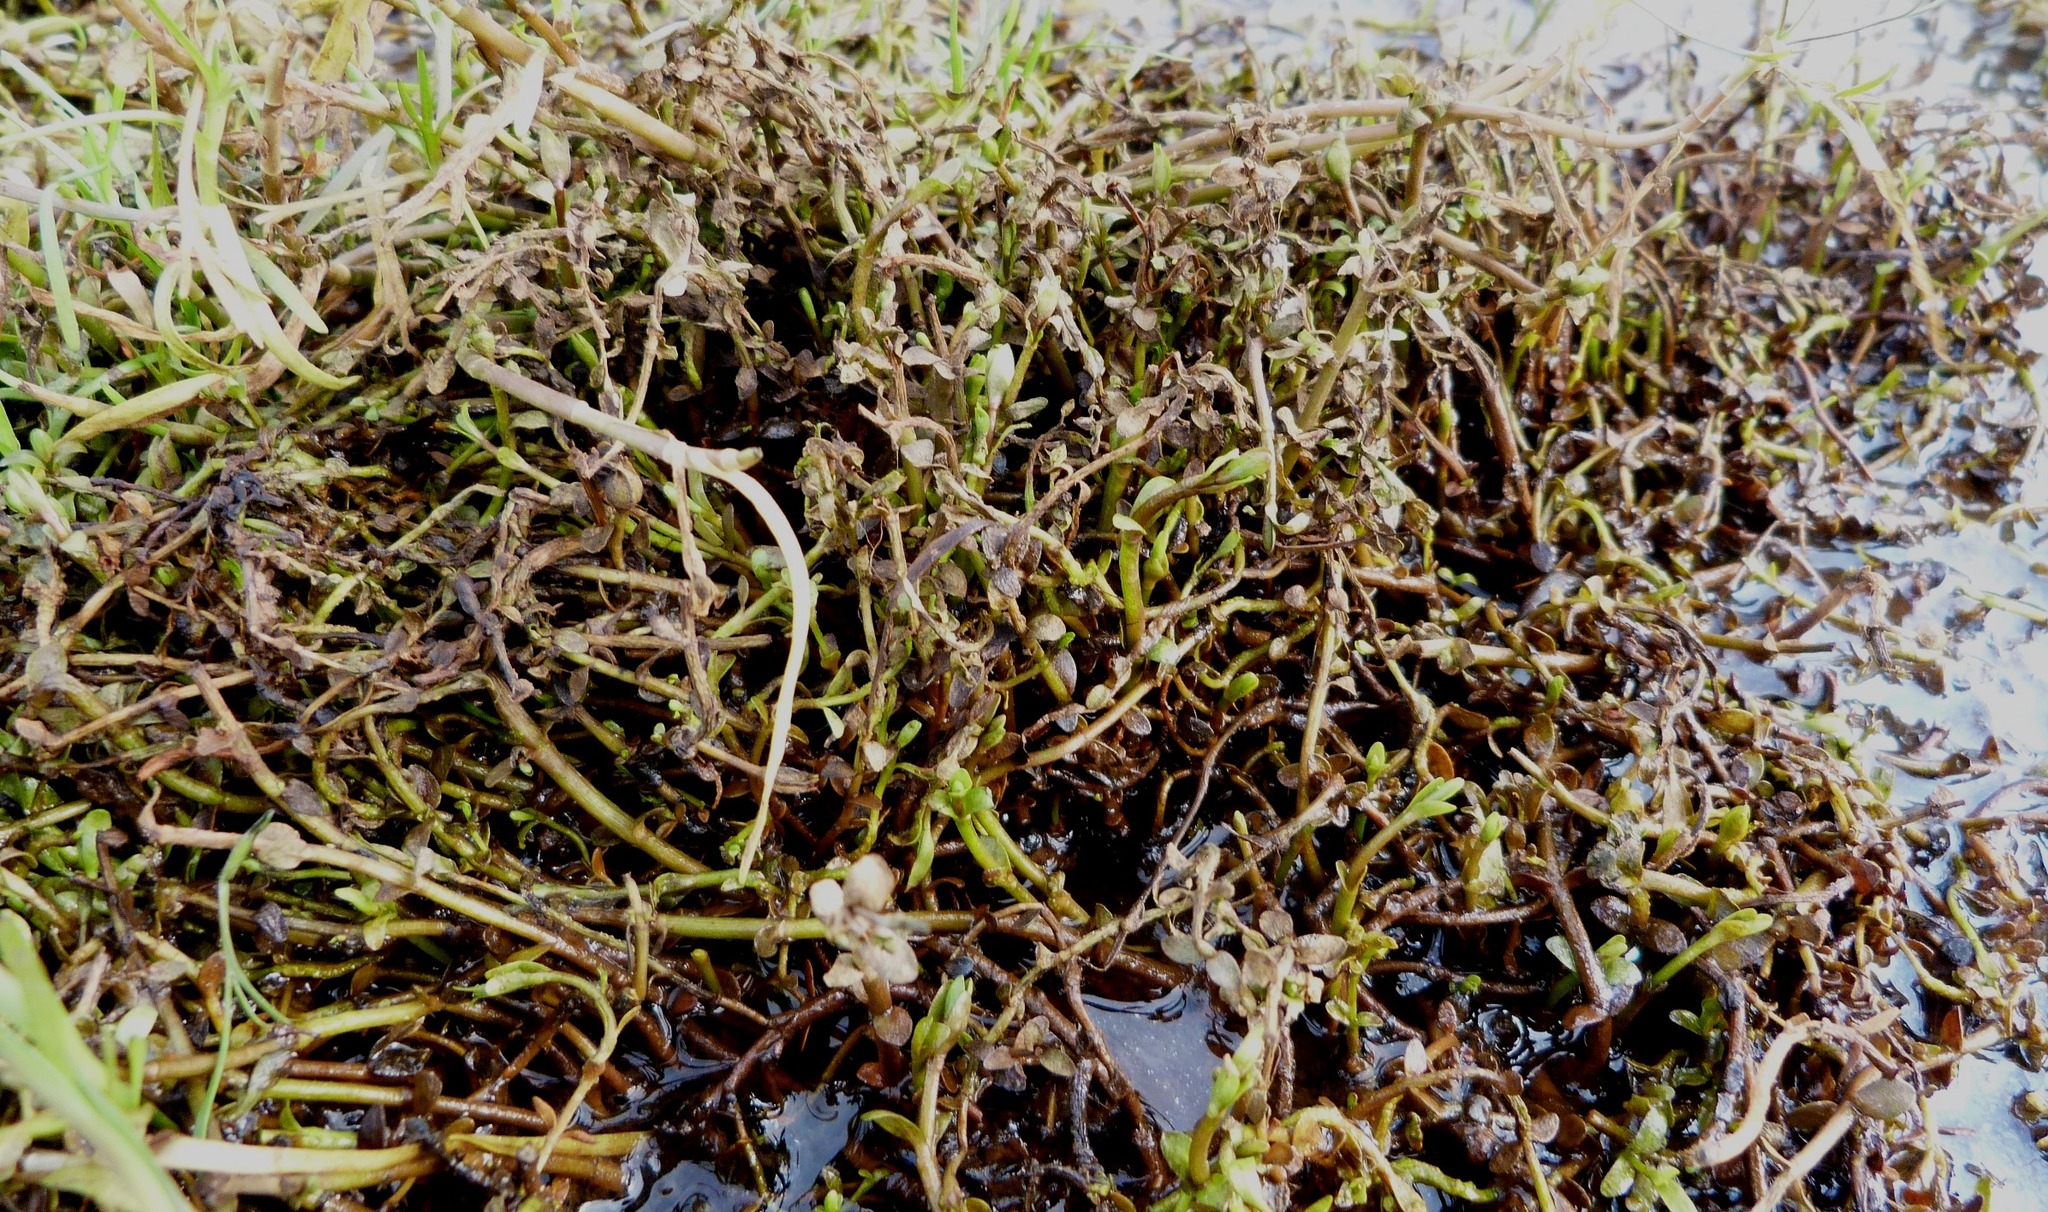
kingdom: Plantae
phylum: Tracheophyta
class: Magnoliopsida
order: Asterales
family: Asteraceae
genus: Cotula
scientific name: Cotula coronopifolia
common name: Buttonweed
